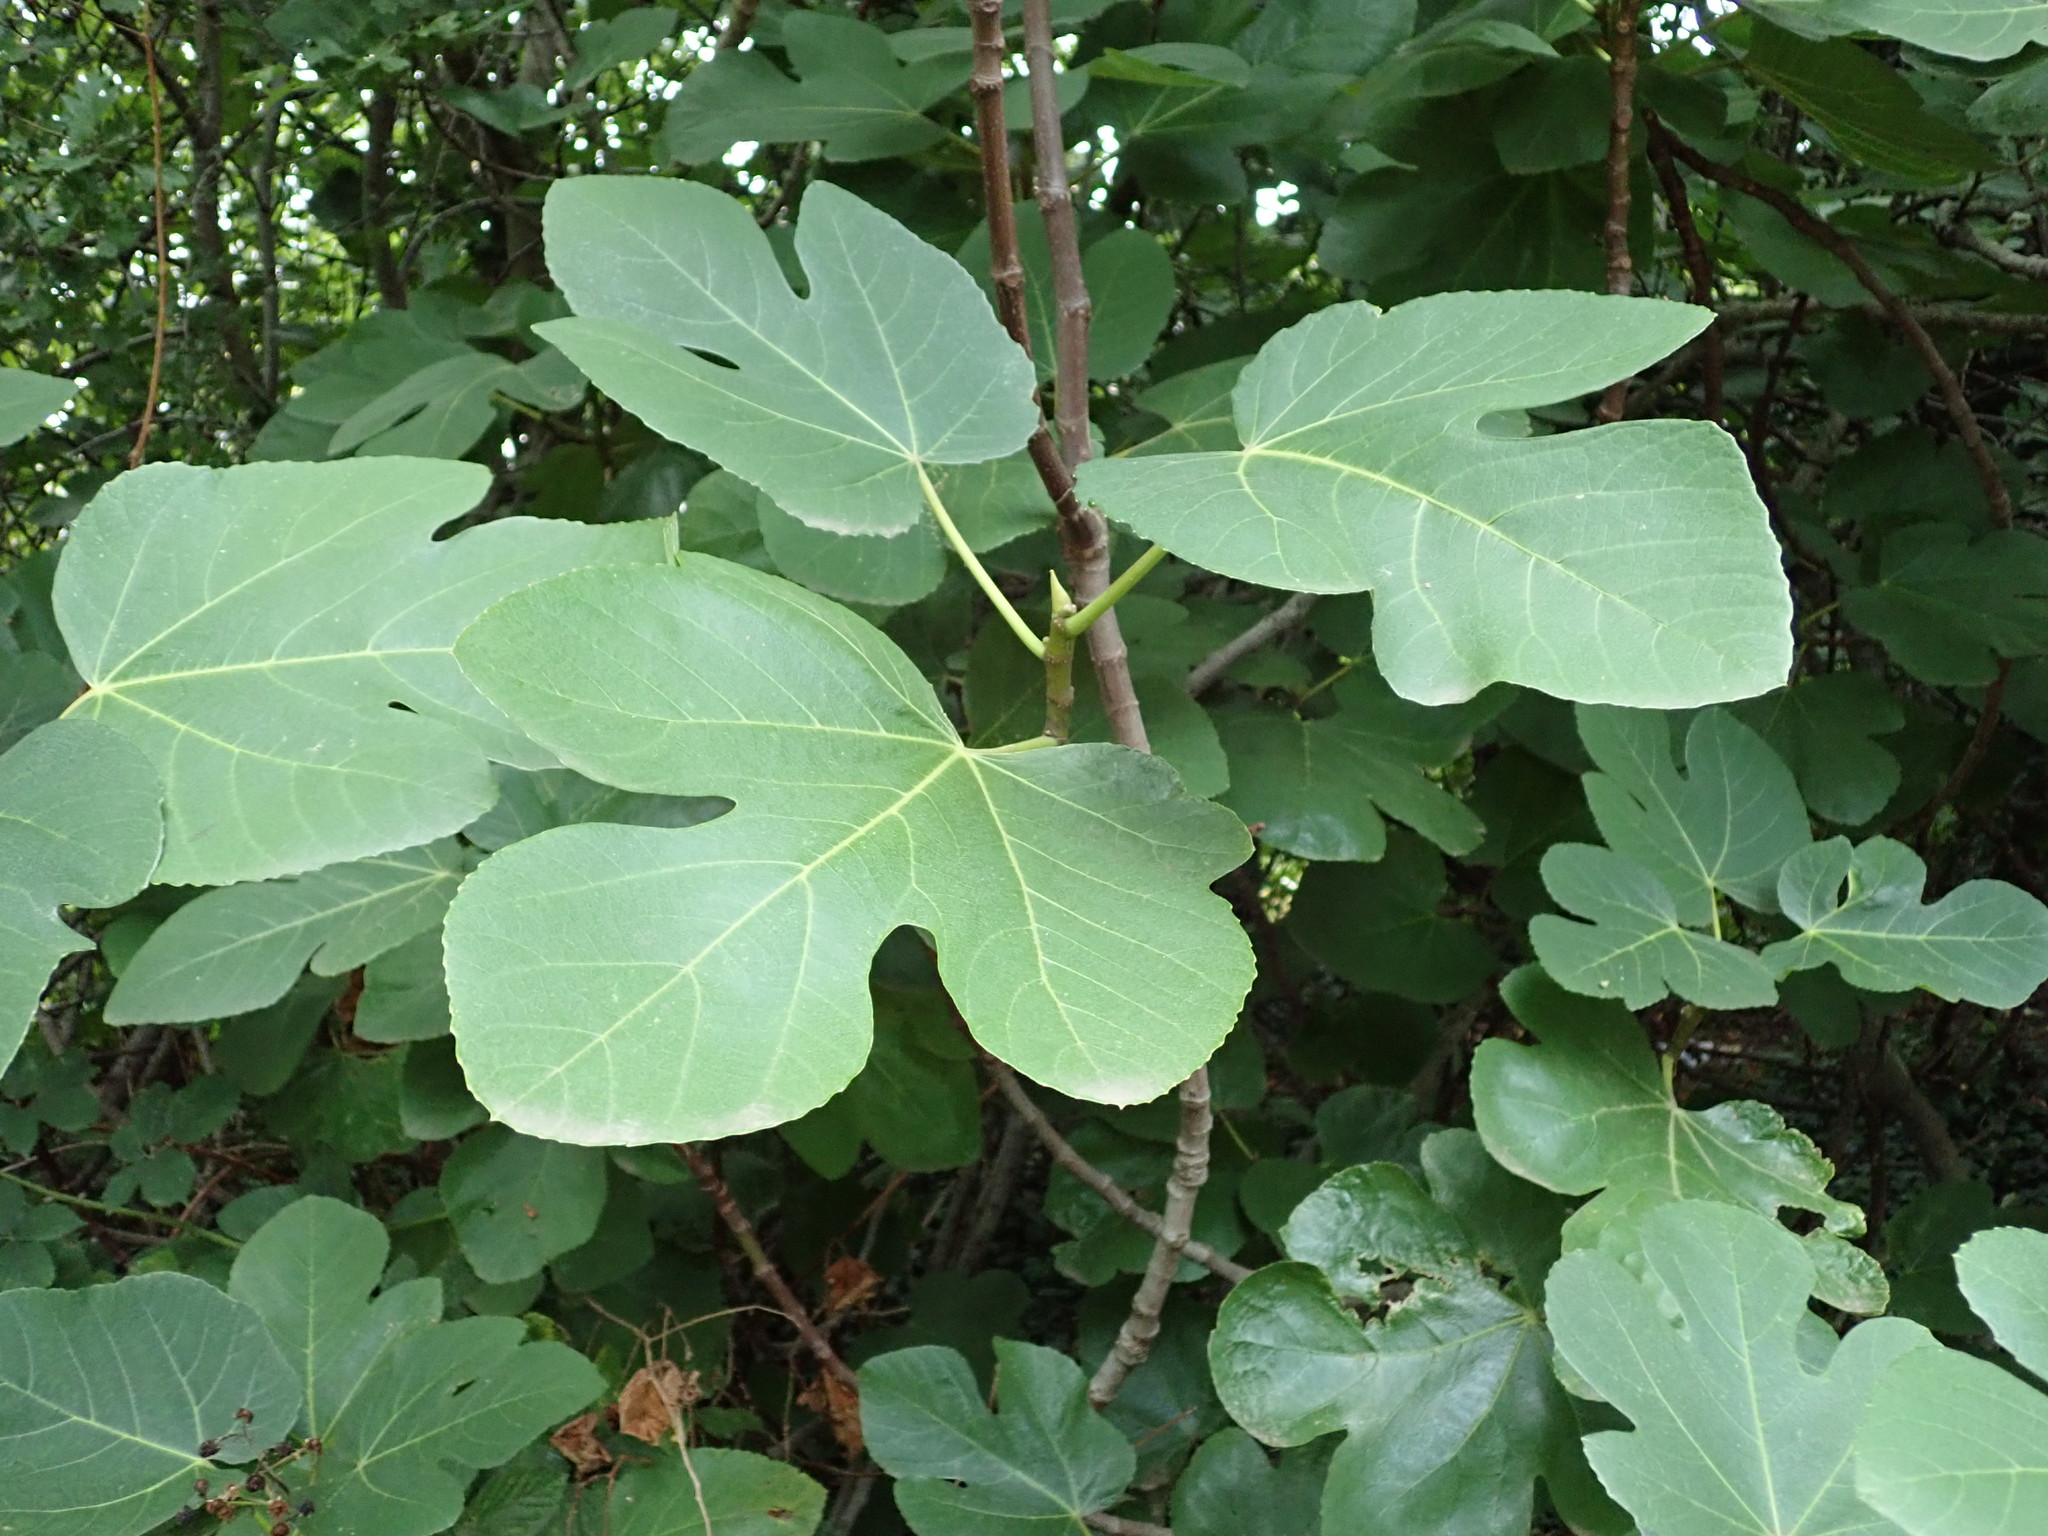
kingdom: Plantae
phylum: Tracheophyta
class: Magnoliopsida
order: Rosales
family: Moraceae
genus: Ficus
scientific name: Ficus carica
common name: Fig
